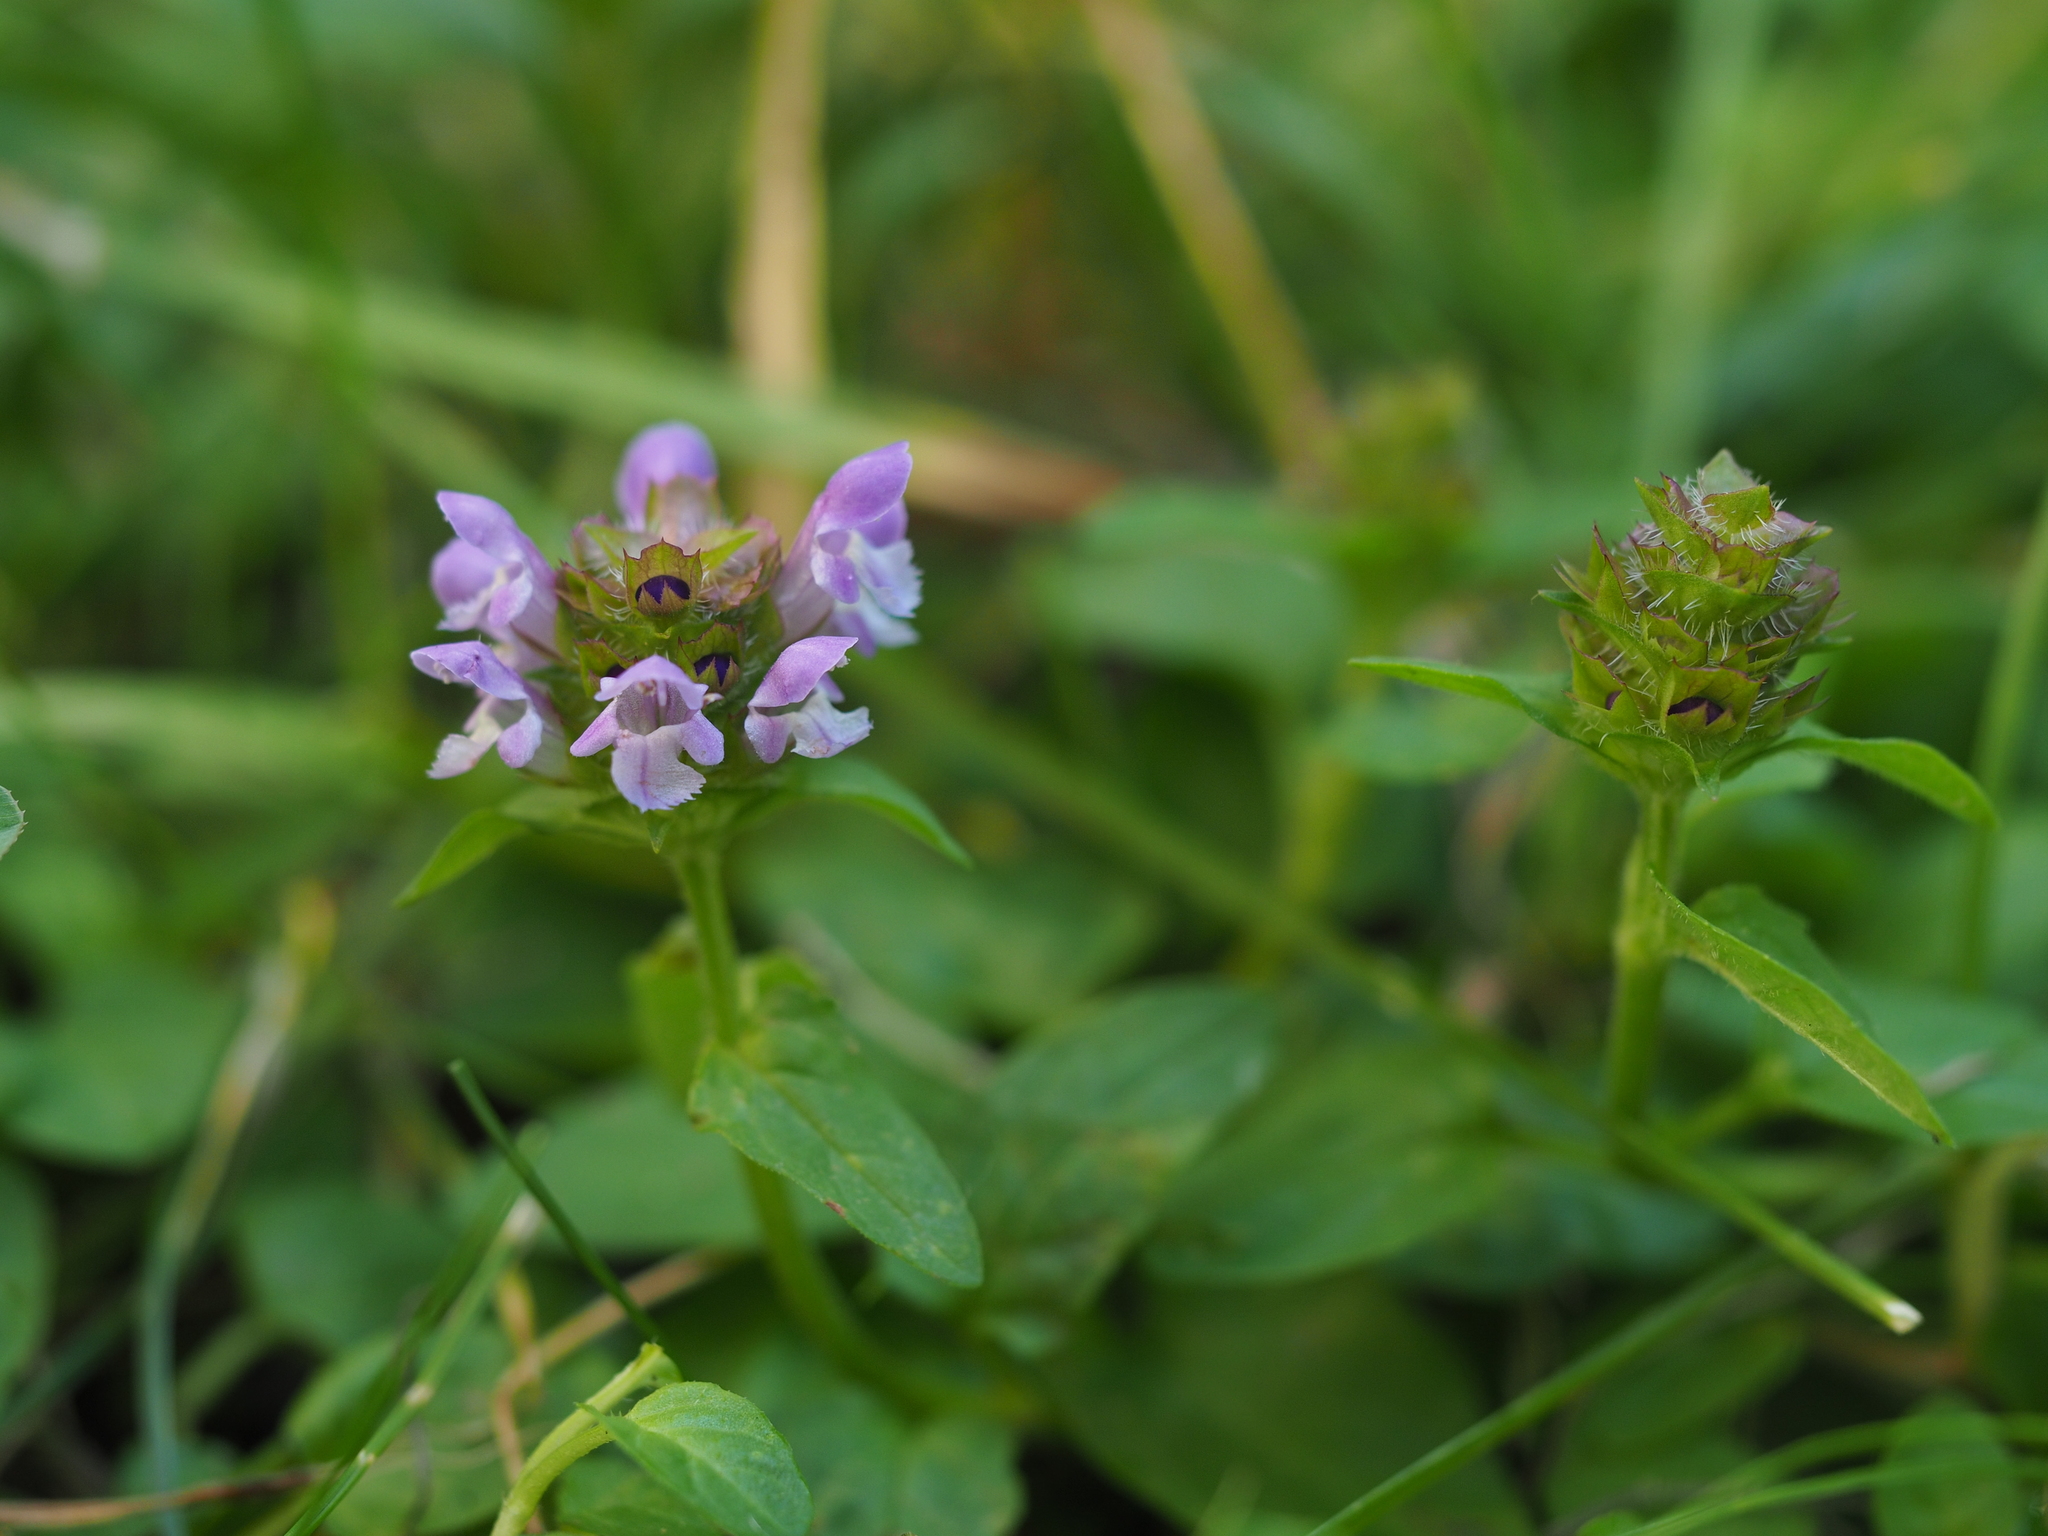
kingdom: Plantae
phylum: Tracheophyta
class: Magnoliopsida
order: Lamiales
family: Lamiaceae
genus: Prunella
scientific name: Prunella vulgaris
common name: Heal-all
